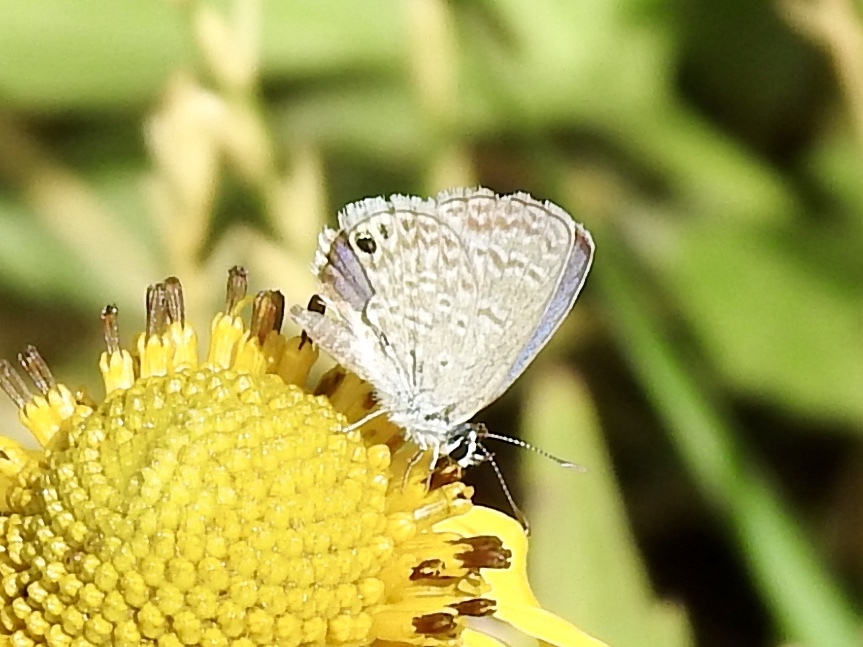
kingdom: Animalia
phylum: Arthropoda
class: Insecta
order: Lepidoptera
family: Lycaenidae
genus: Hemiargus
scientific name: Hemiargus ceraunus
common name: Ceraunus blue
